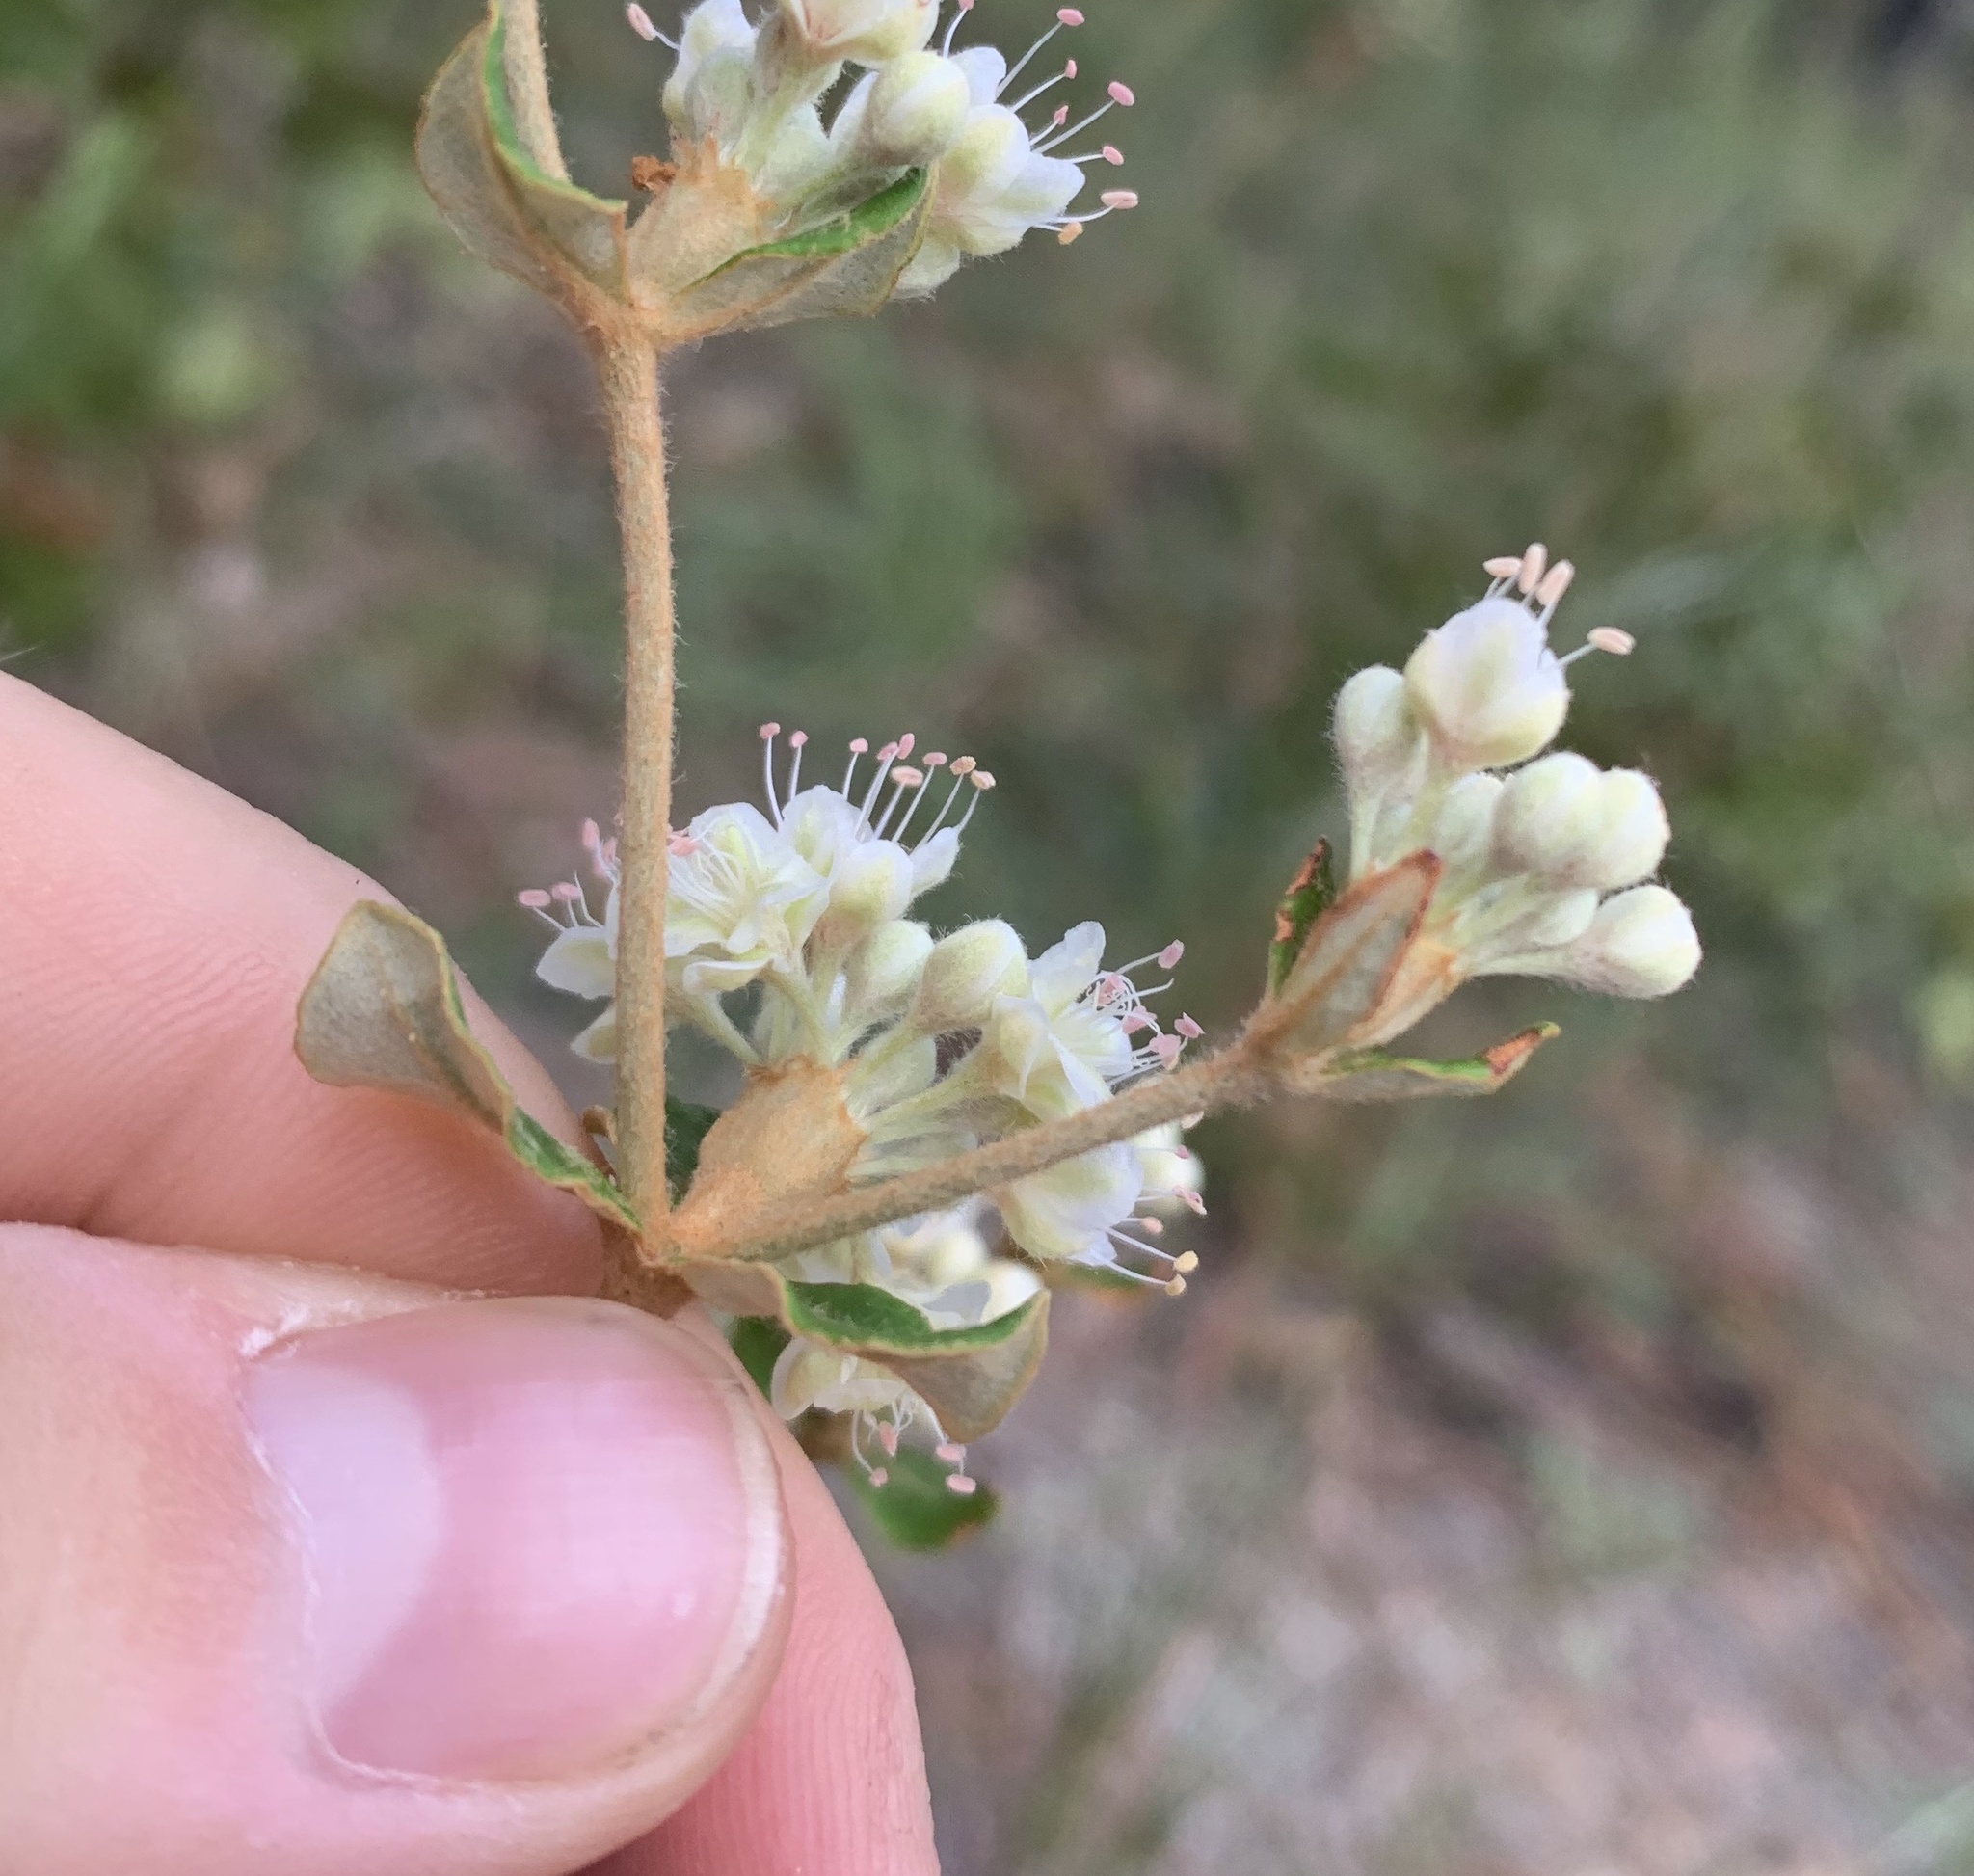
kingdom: Plantae
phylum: Tracheophyta
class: Magnoliopsida
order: Caryophyllales
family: Polygonaceae
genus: Eriogonum
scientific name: Eriogonum tomentosum
